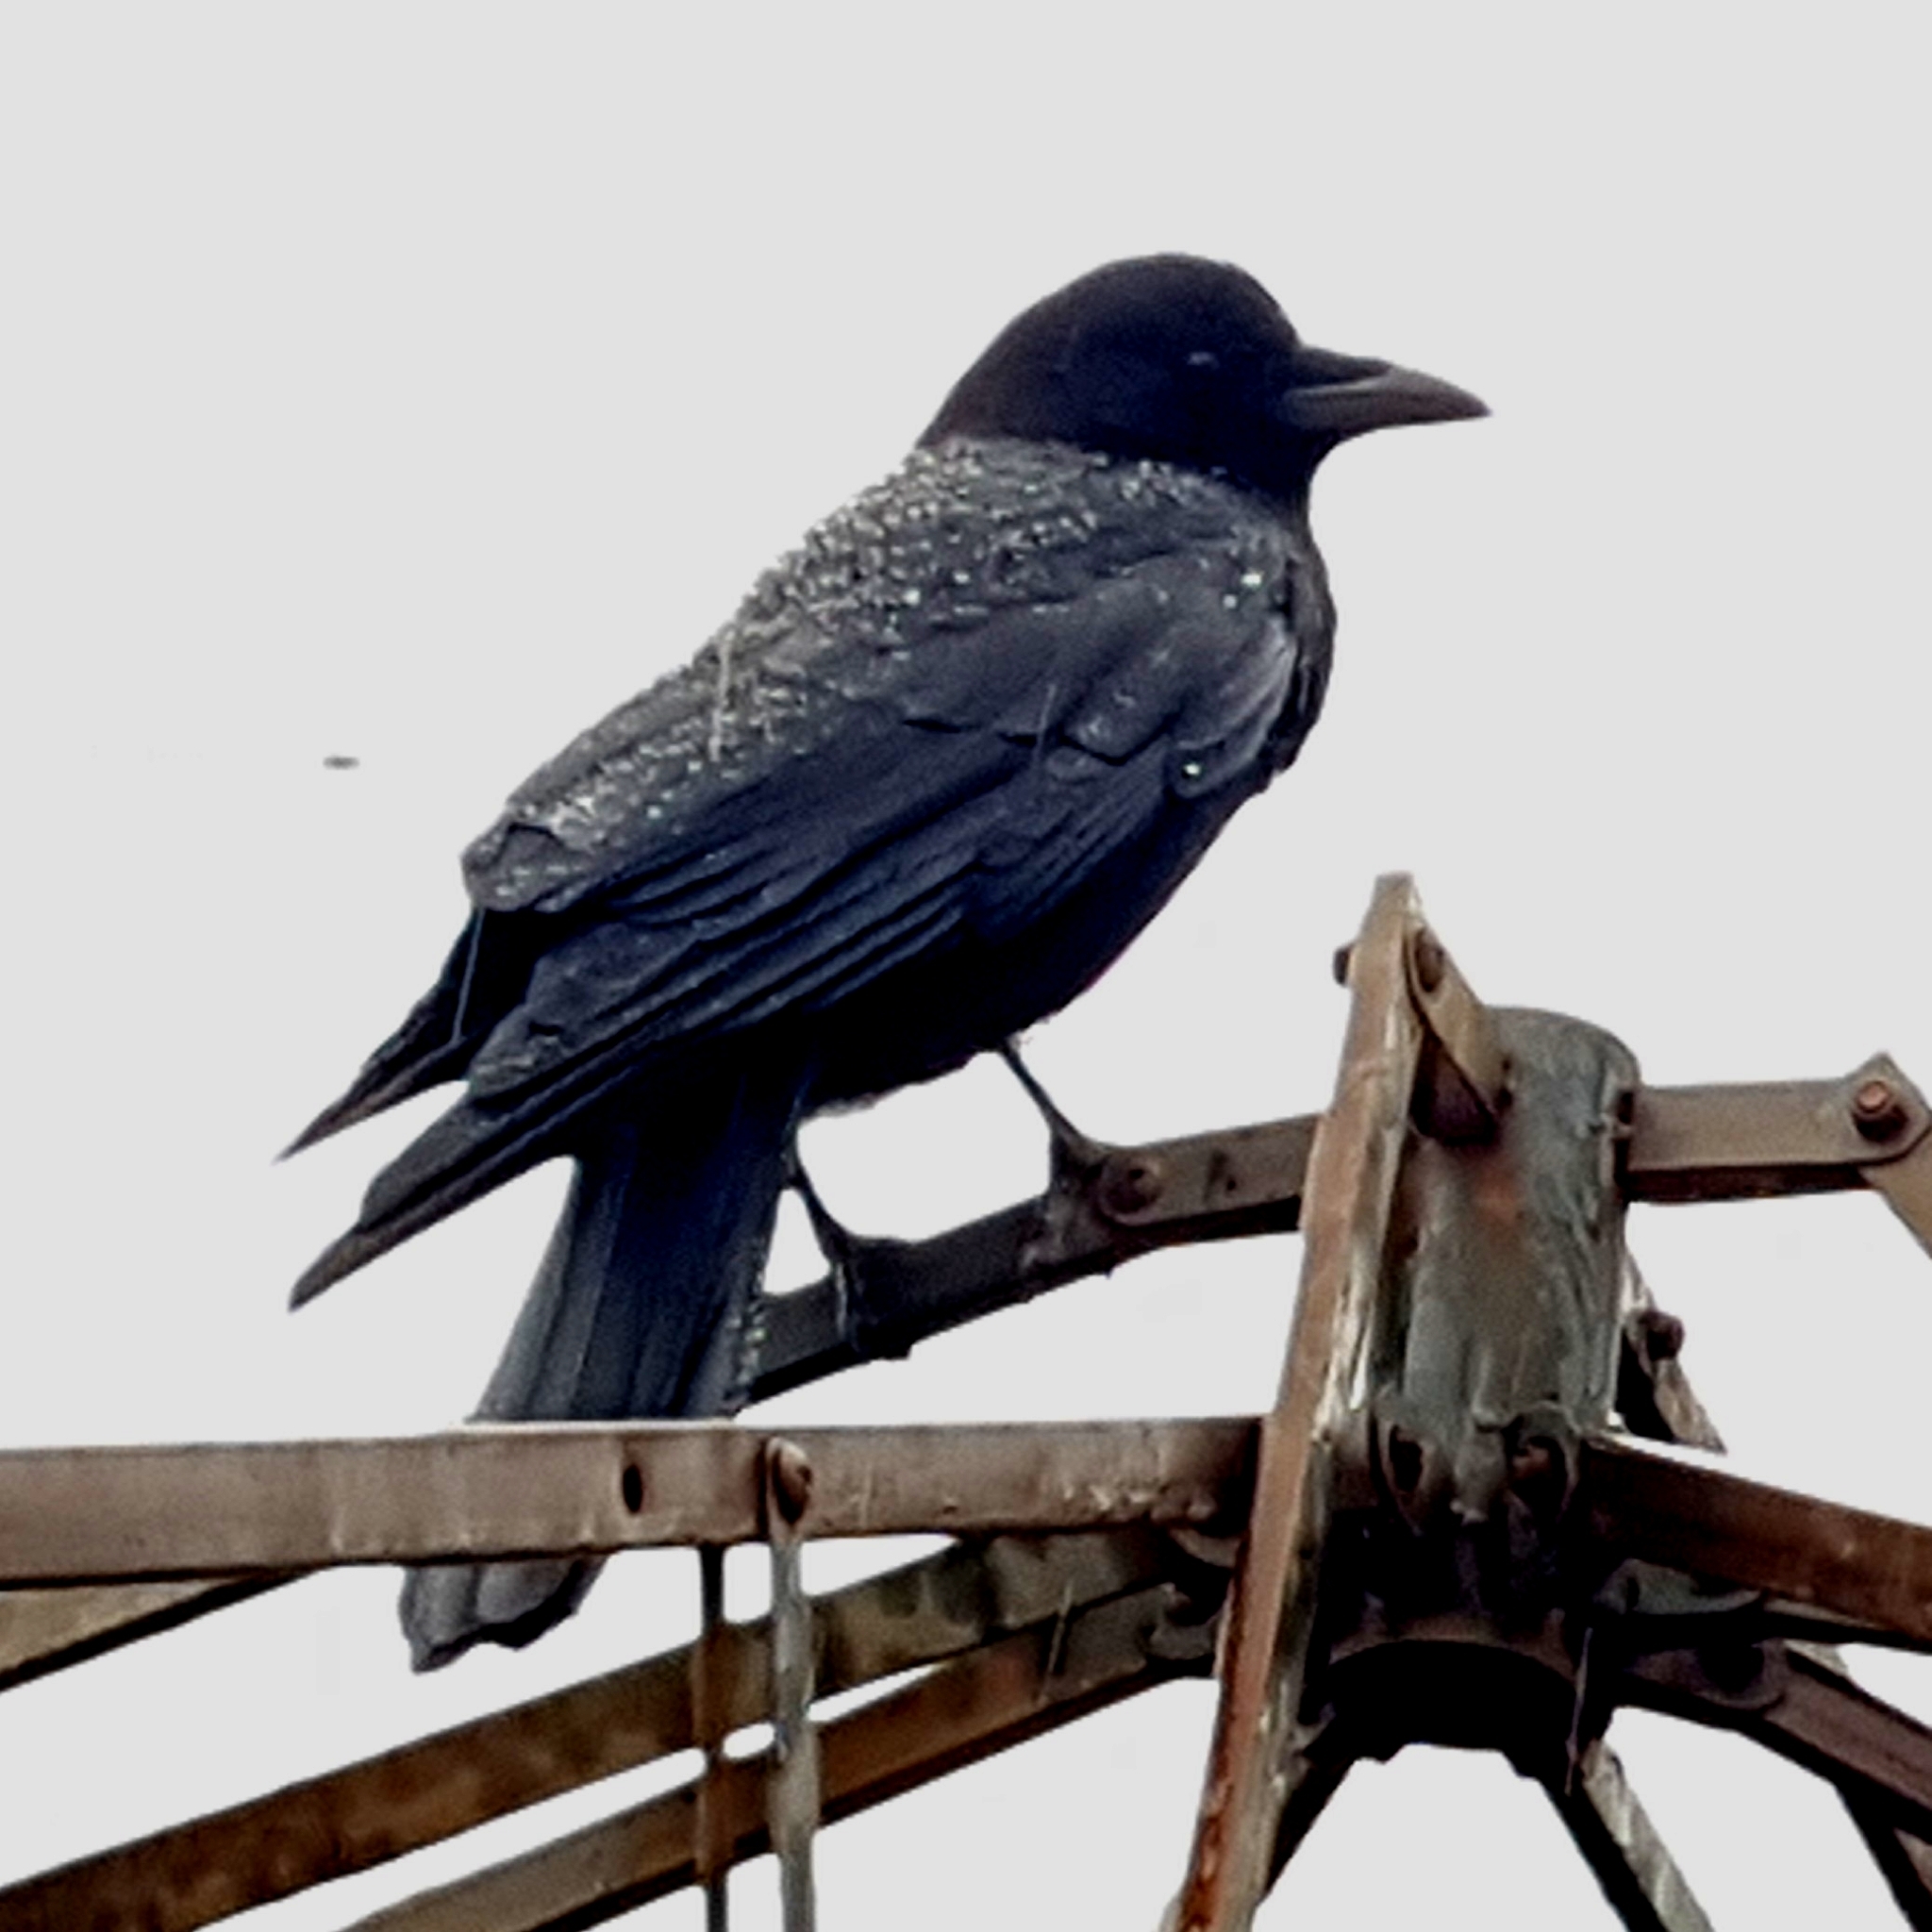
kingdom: Animalia
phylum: Chordata
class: Aves
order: Passeriformes
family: Corvidae
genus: Corvus
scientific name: Corvus brachyrhynchos
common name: American crow
